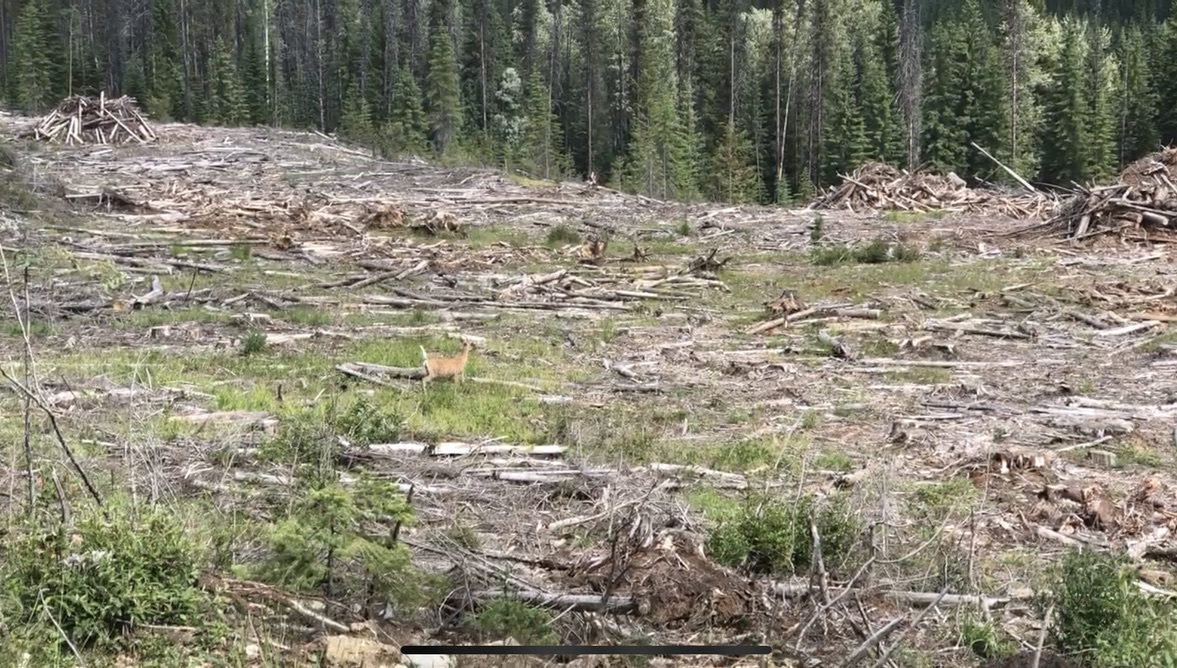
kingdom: Animalia
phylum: Chordata
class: Mammalia
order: Artiodactyla
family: Cervidae
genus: Odocoileus
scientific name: Odocoileus virginianus
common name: White-tailed deer
